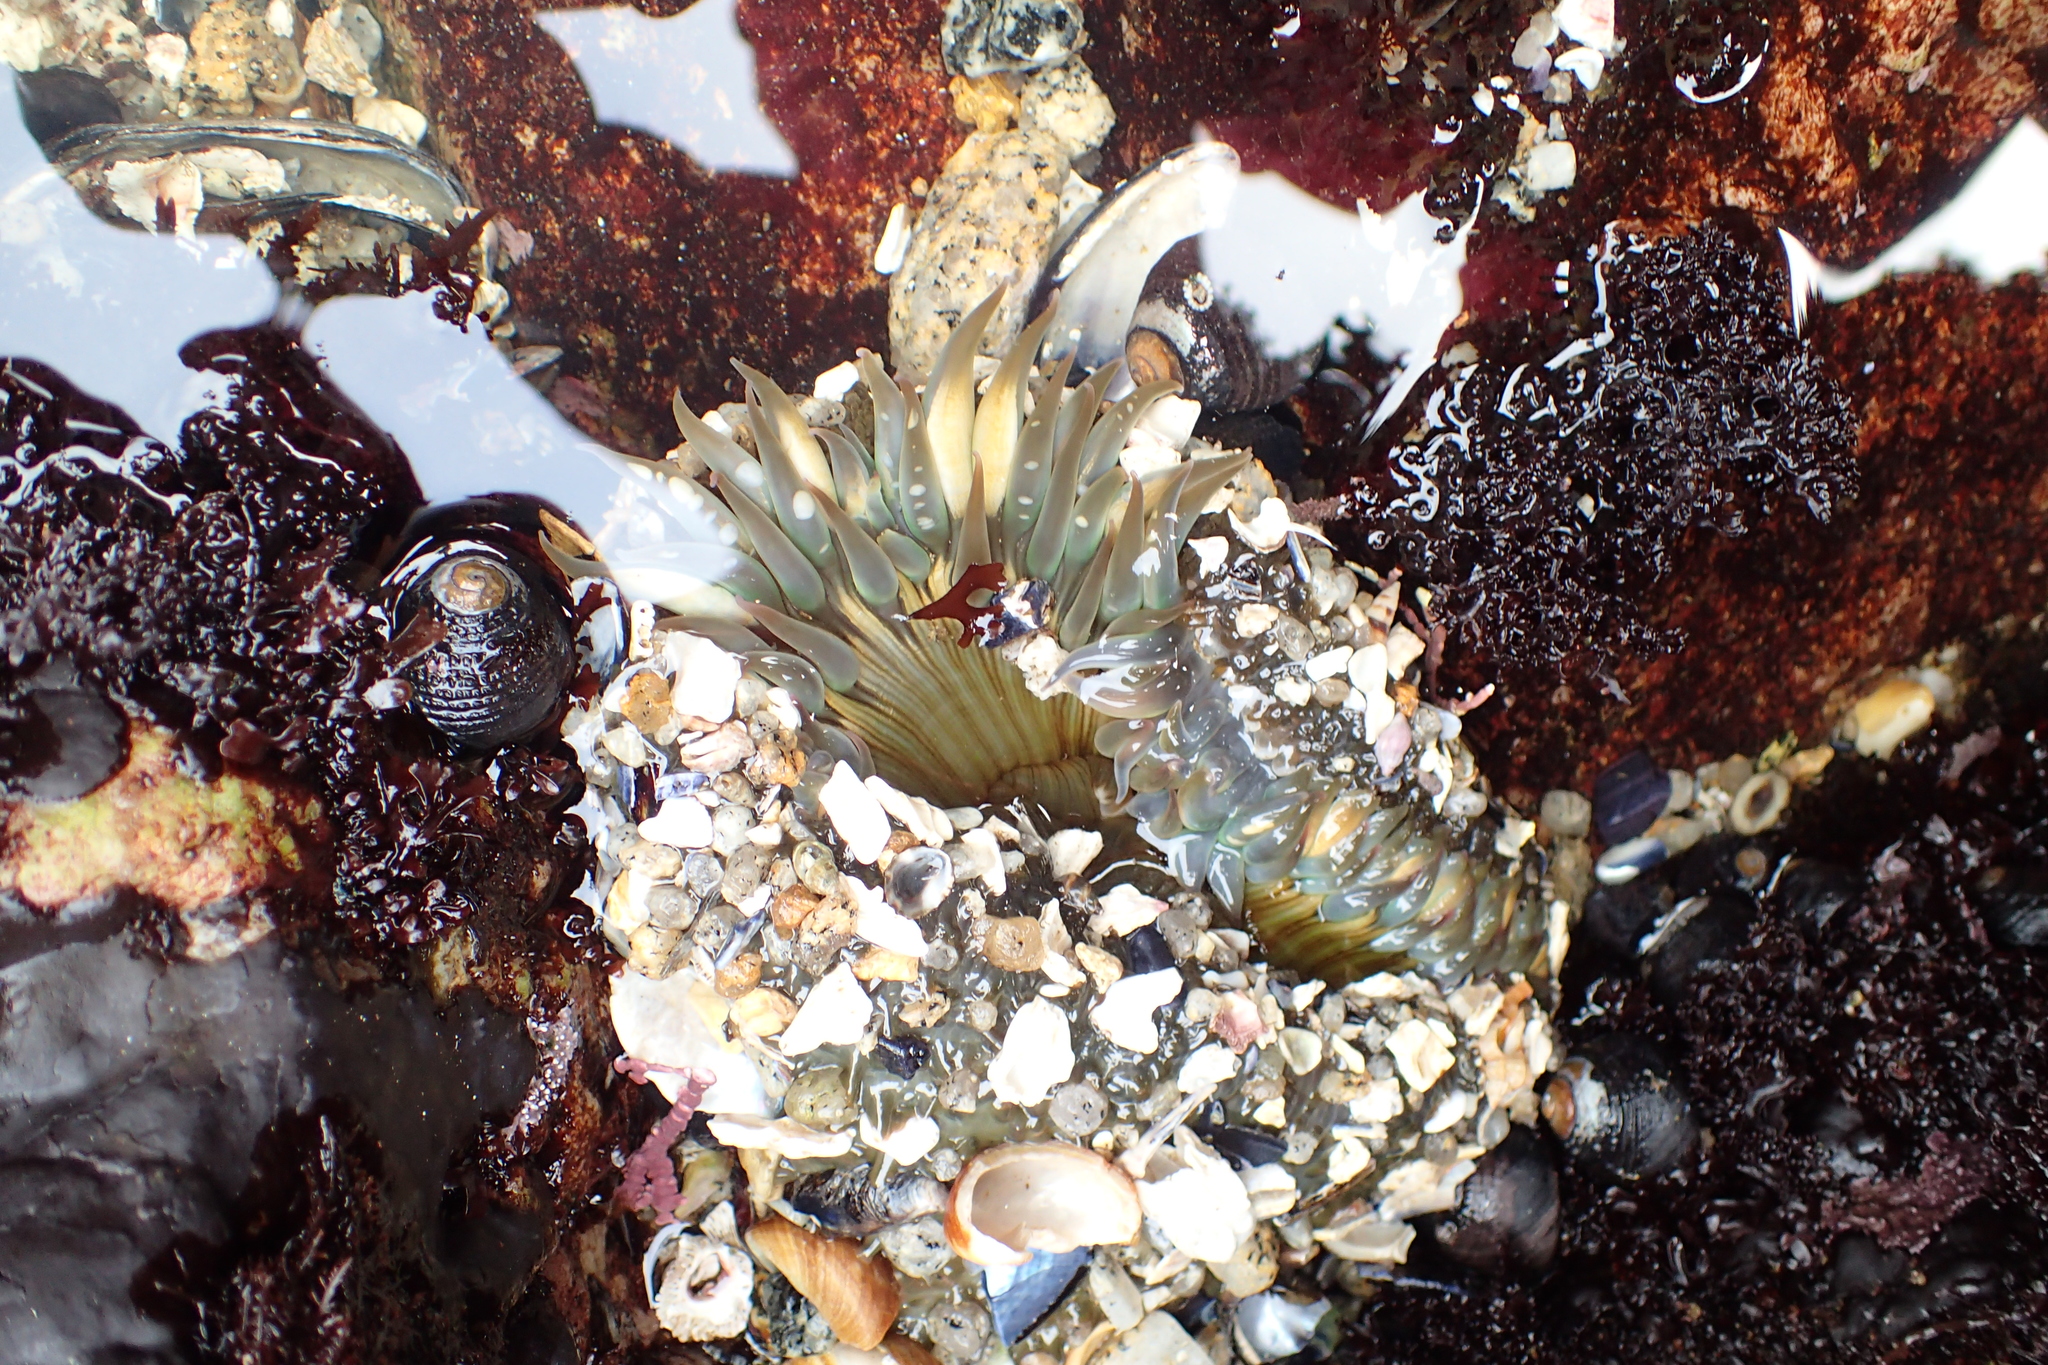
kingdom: Animalia
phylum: Cnidaria
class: Anthozoa
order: Actiniaria
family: Actiniidae
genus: Anthopleura
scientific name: Anthopleura sola
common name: Sun anemone
